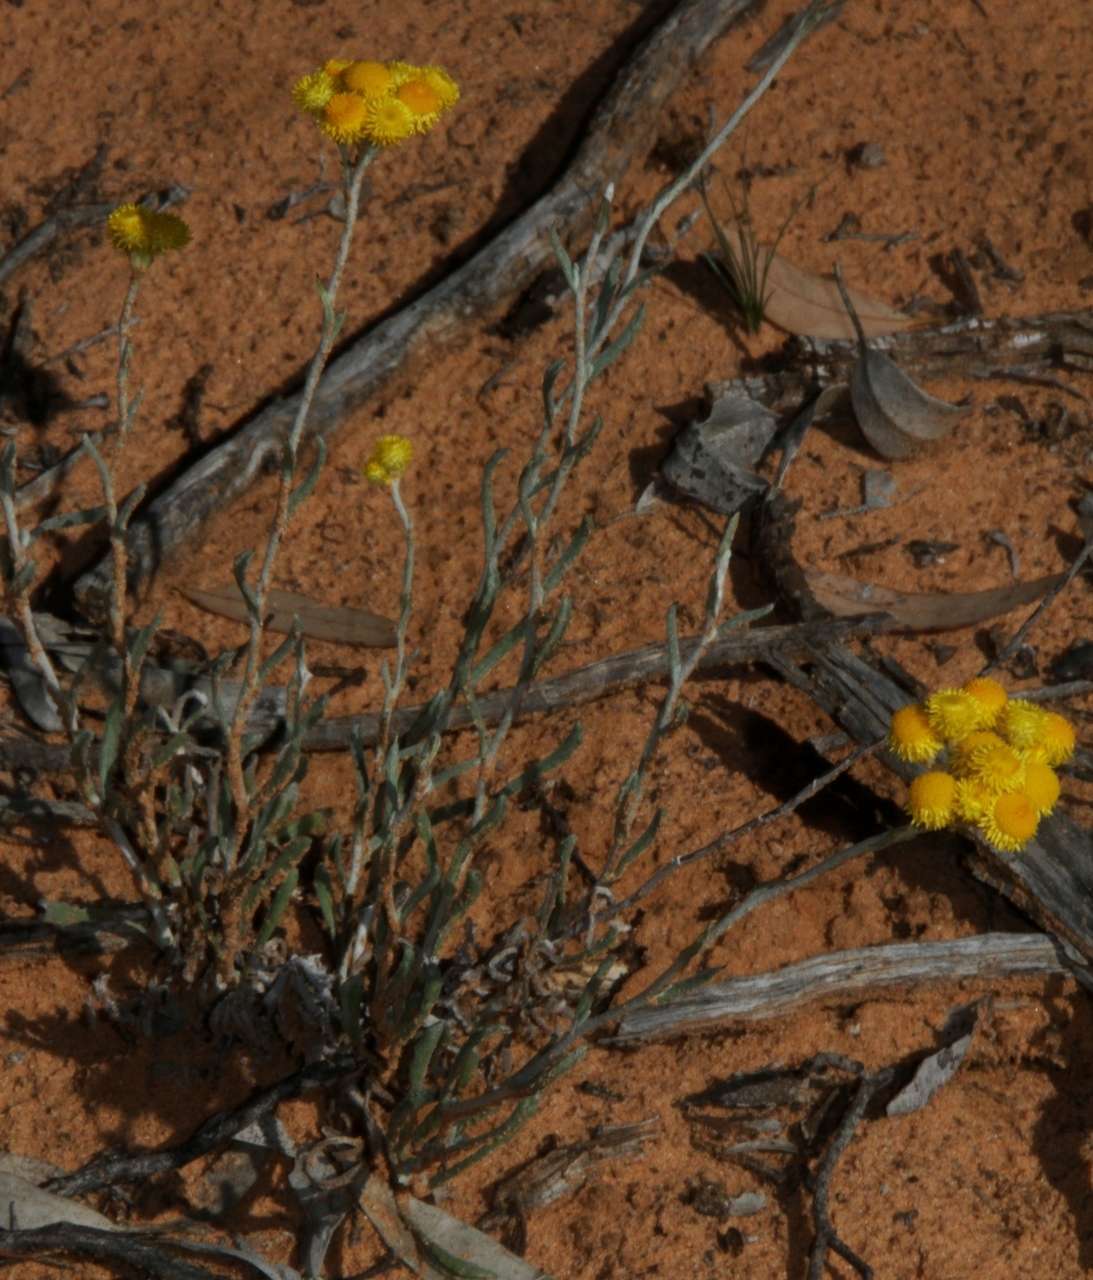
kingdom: Plantae
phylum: Tracheophyta
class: Magnoliopsida
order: Asterales
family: Asteraceae
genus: Chrysocephalum
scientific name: Chrysocephalum apiculatum
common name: Common everlasting
